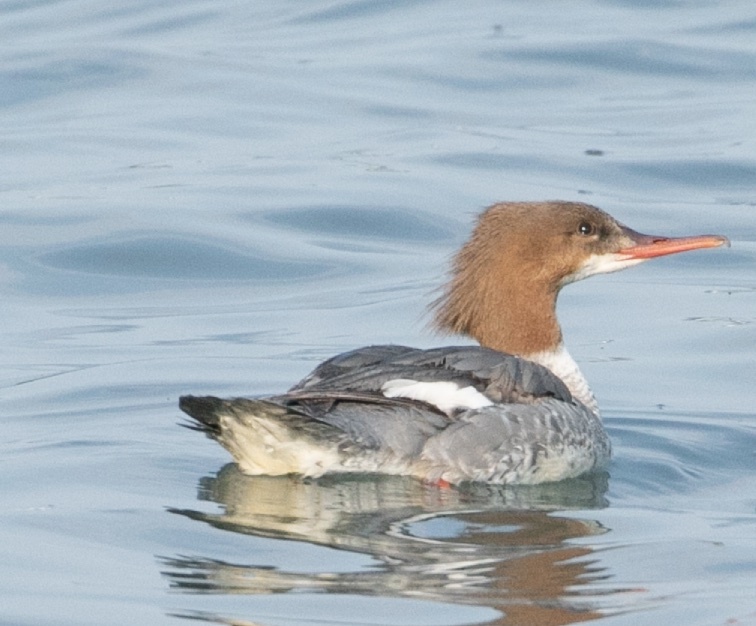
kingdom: Animalia
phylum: Chordata
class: Aves
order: Anseriformes
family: Anatidae
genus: Mergus
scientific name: Mergus merganser
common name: Common merganser
